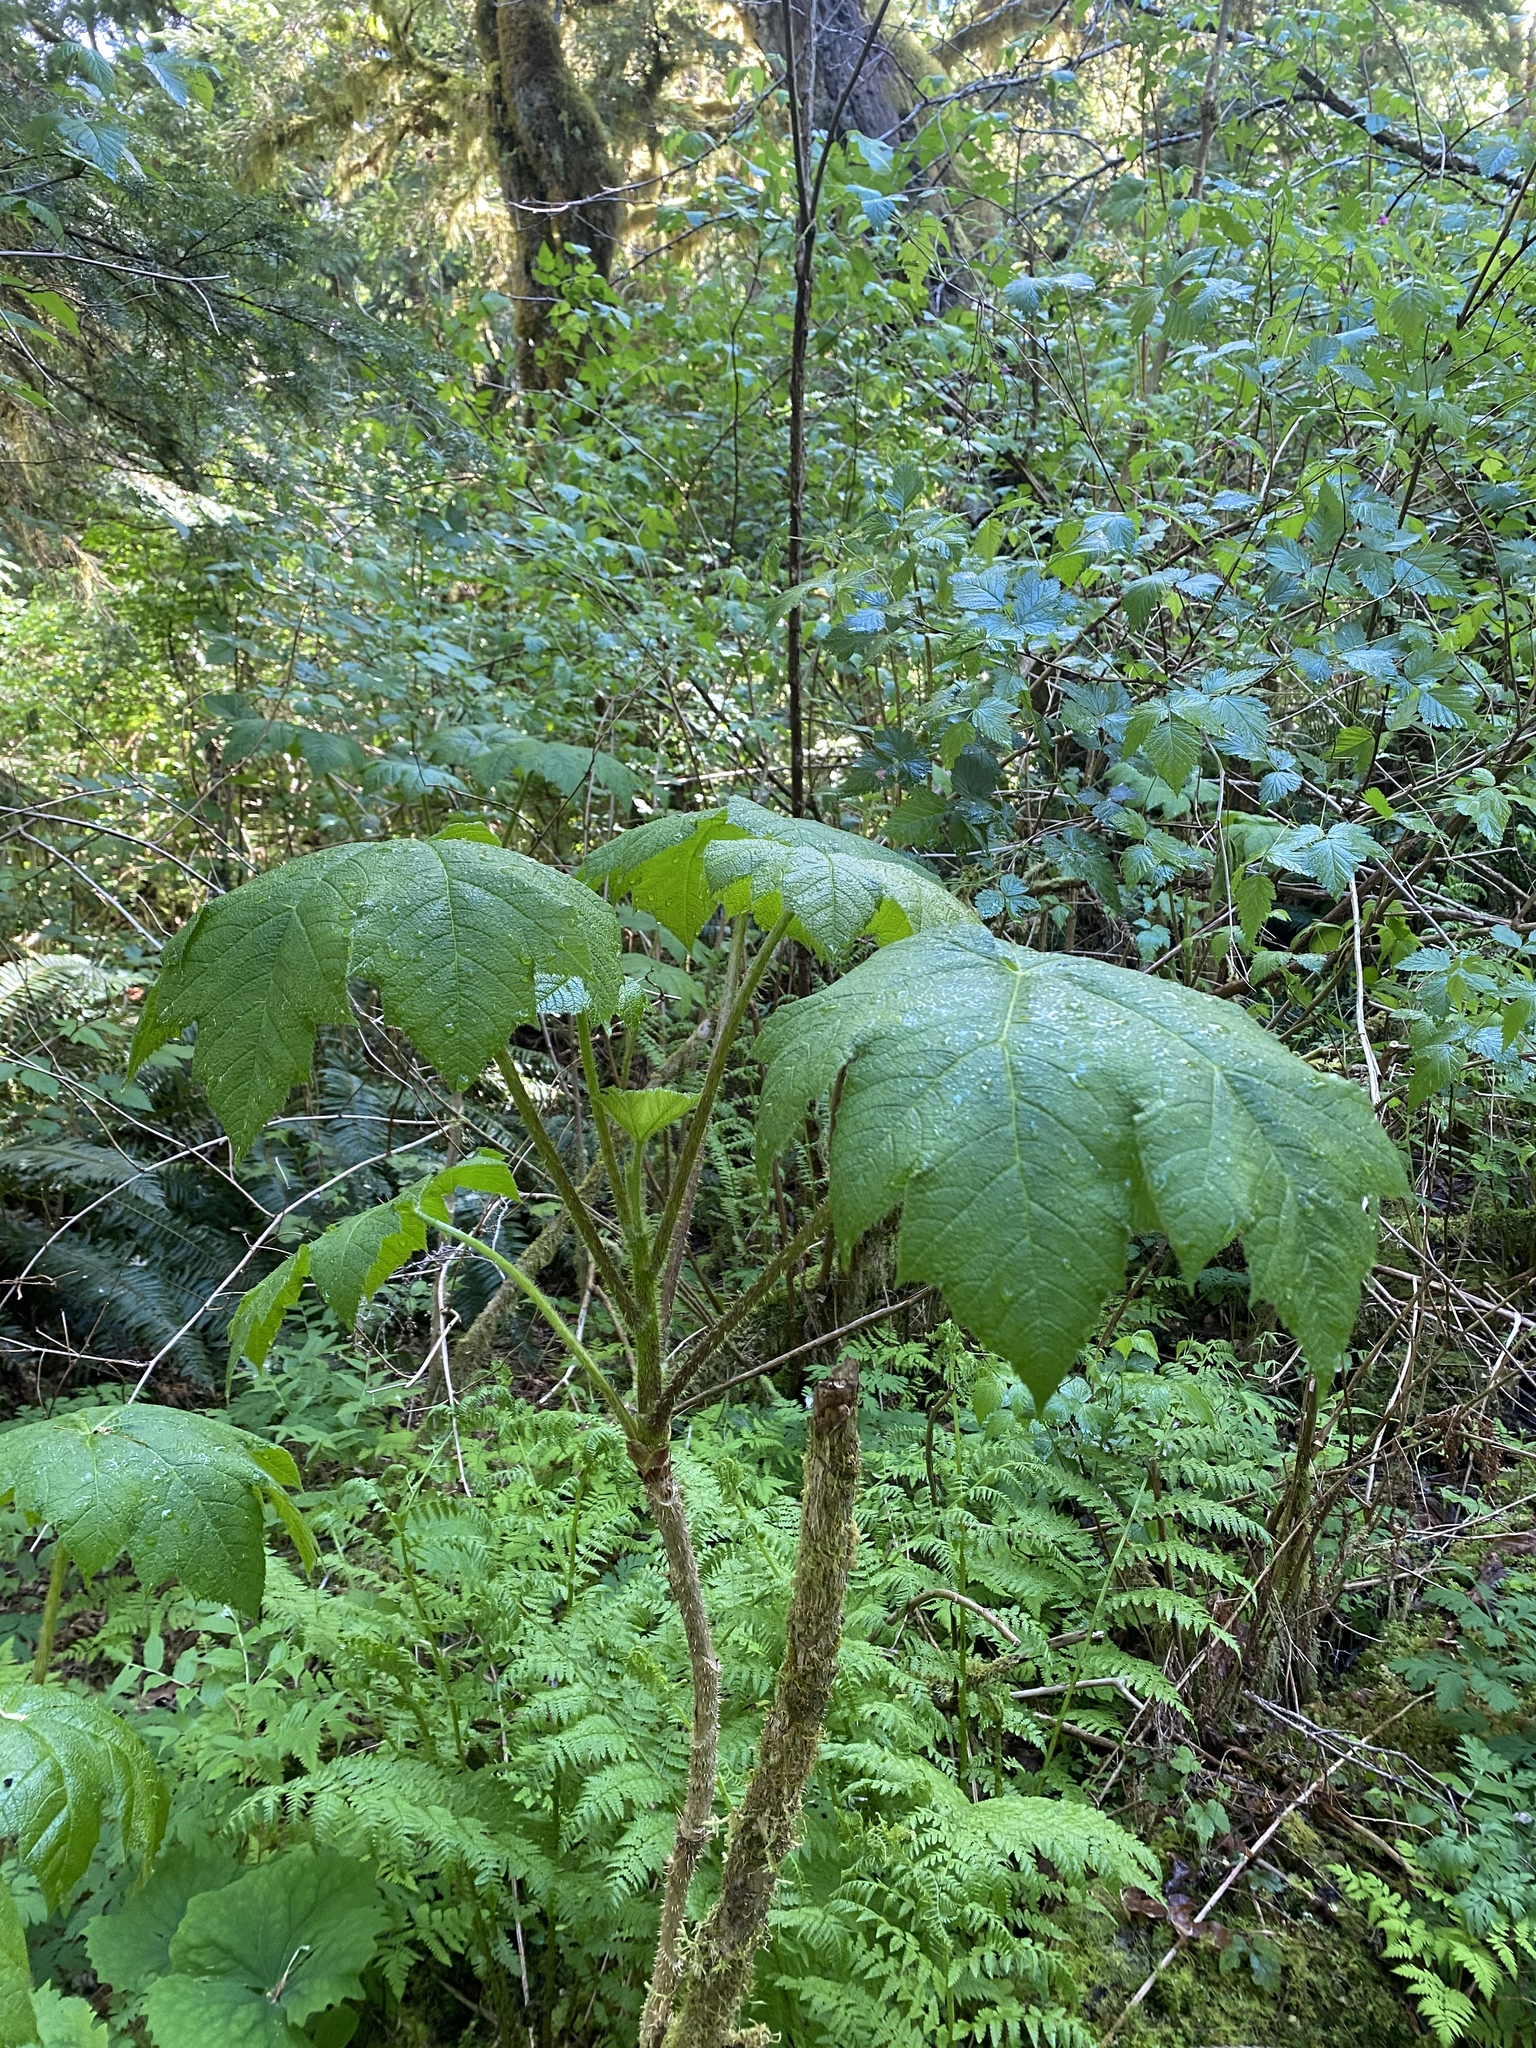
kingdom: Plantae
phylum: Tracheophyta
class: Magnoliopsida
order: Apiales
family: Araliaceae
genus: Oplopanax
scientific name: Oplopanax horridus
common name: Devil's walking-stick
